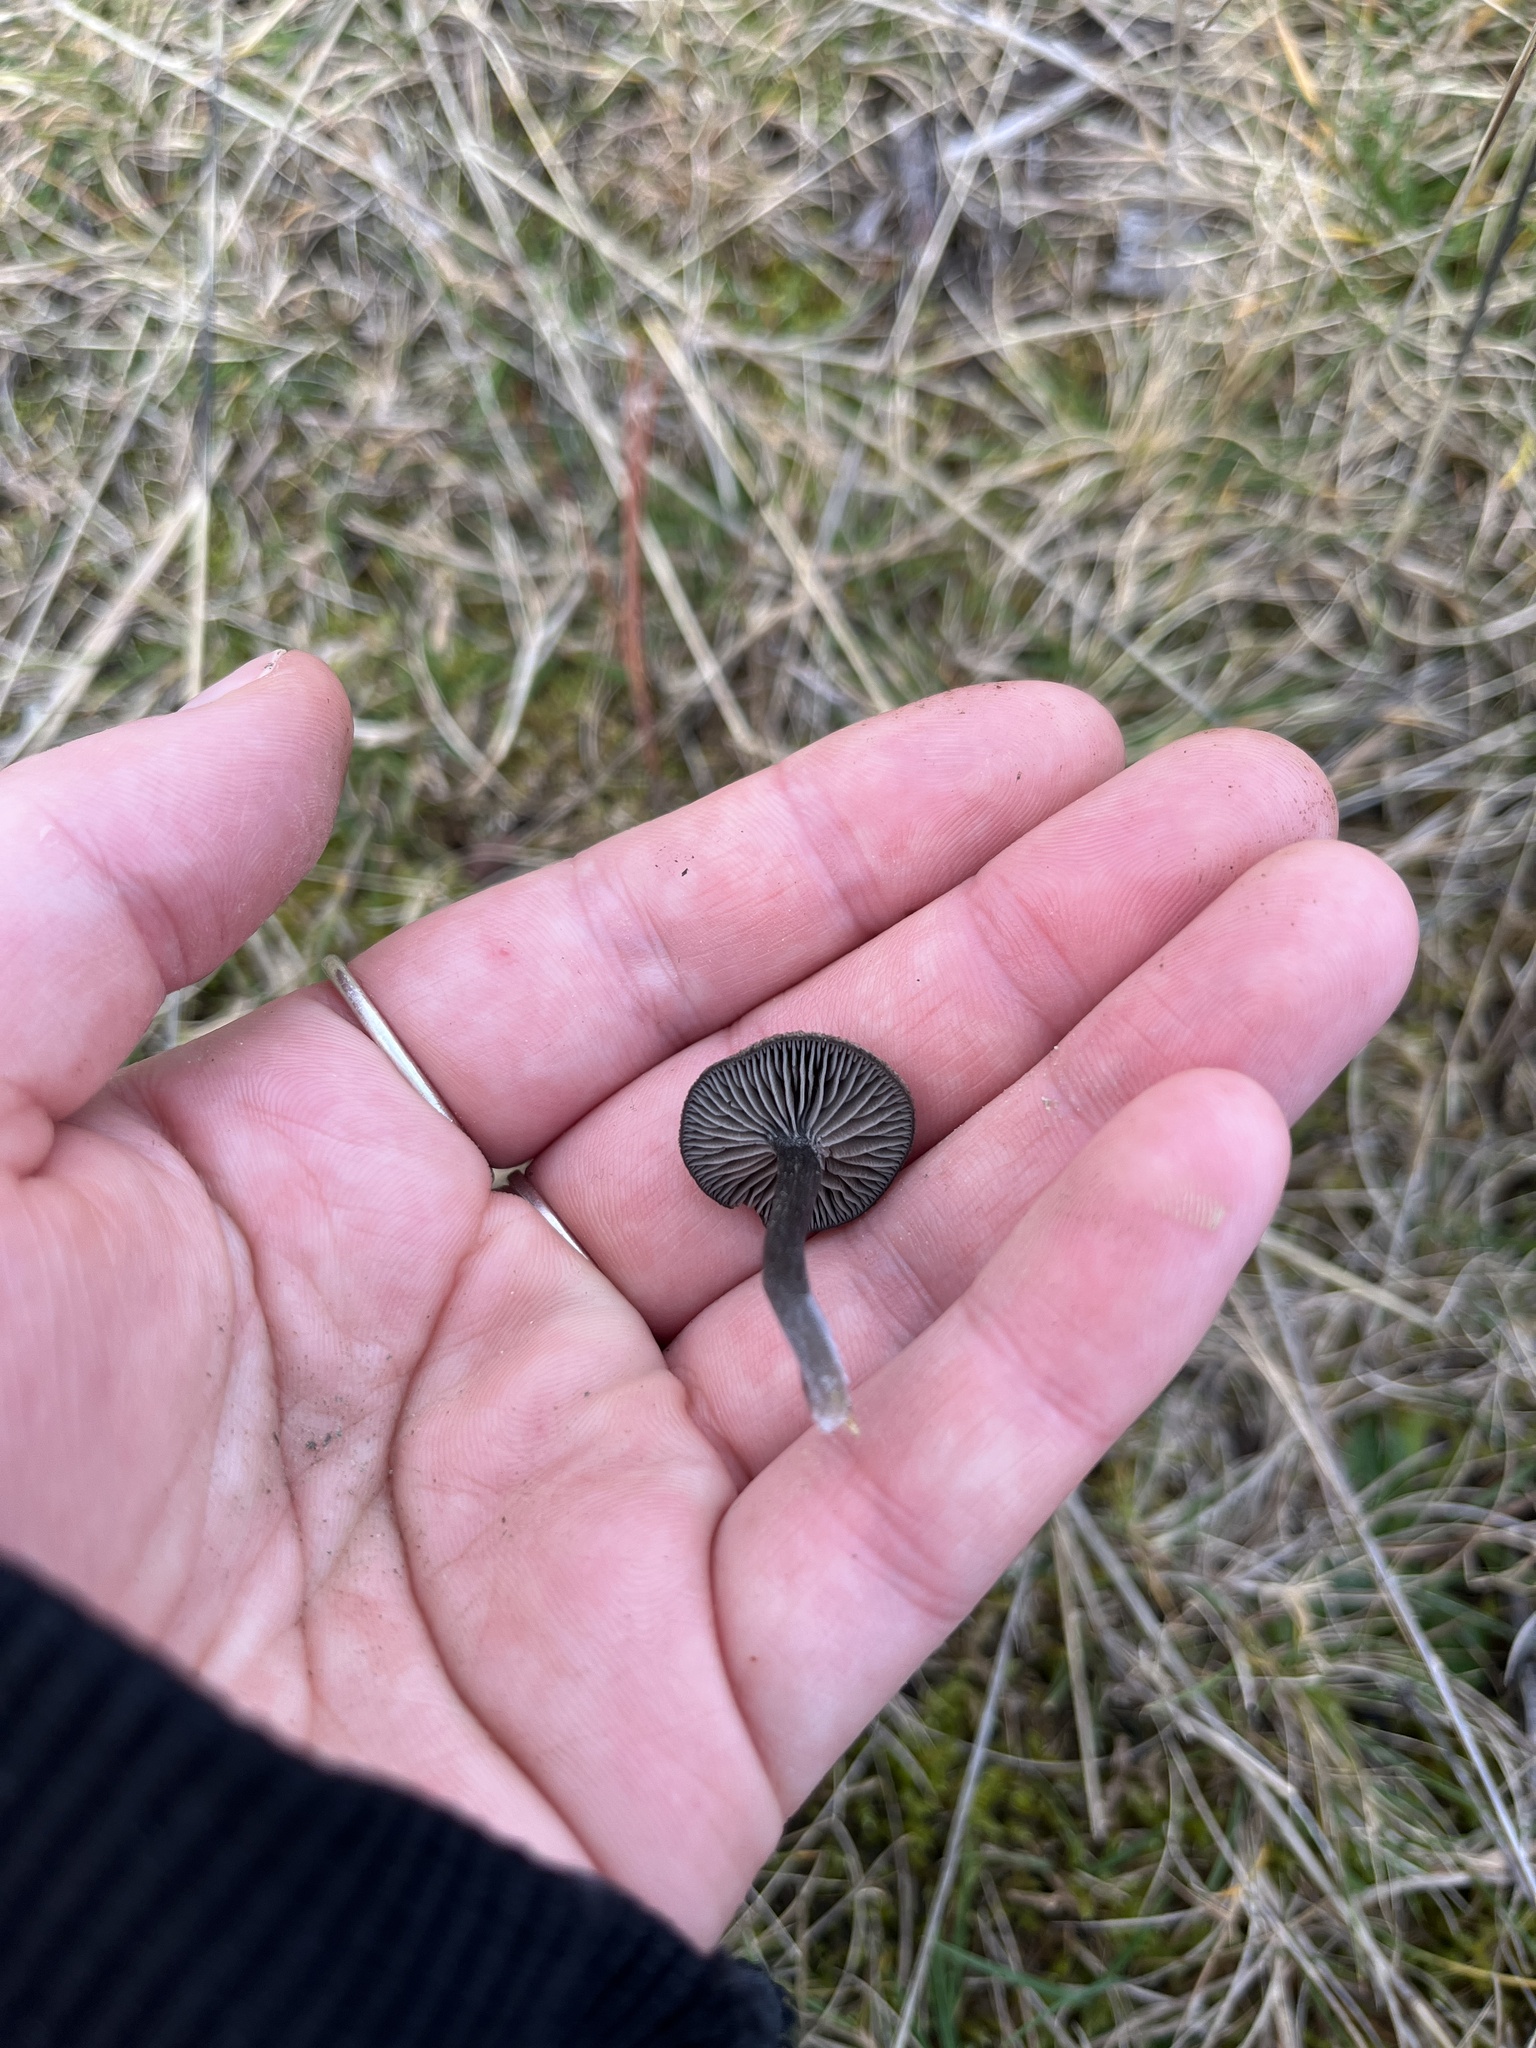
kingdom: Fungi
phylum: Basidiomycota
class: Agaricomycetes
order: Agaricales
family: Entolomataceae
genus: Entoloma
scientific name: Entoloma crinitum
